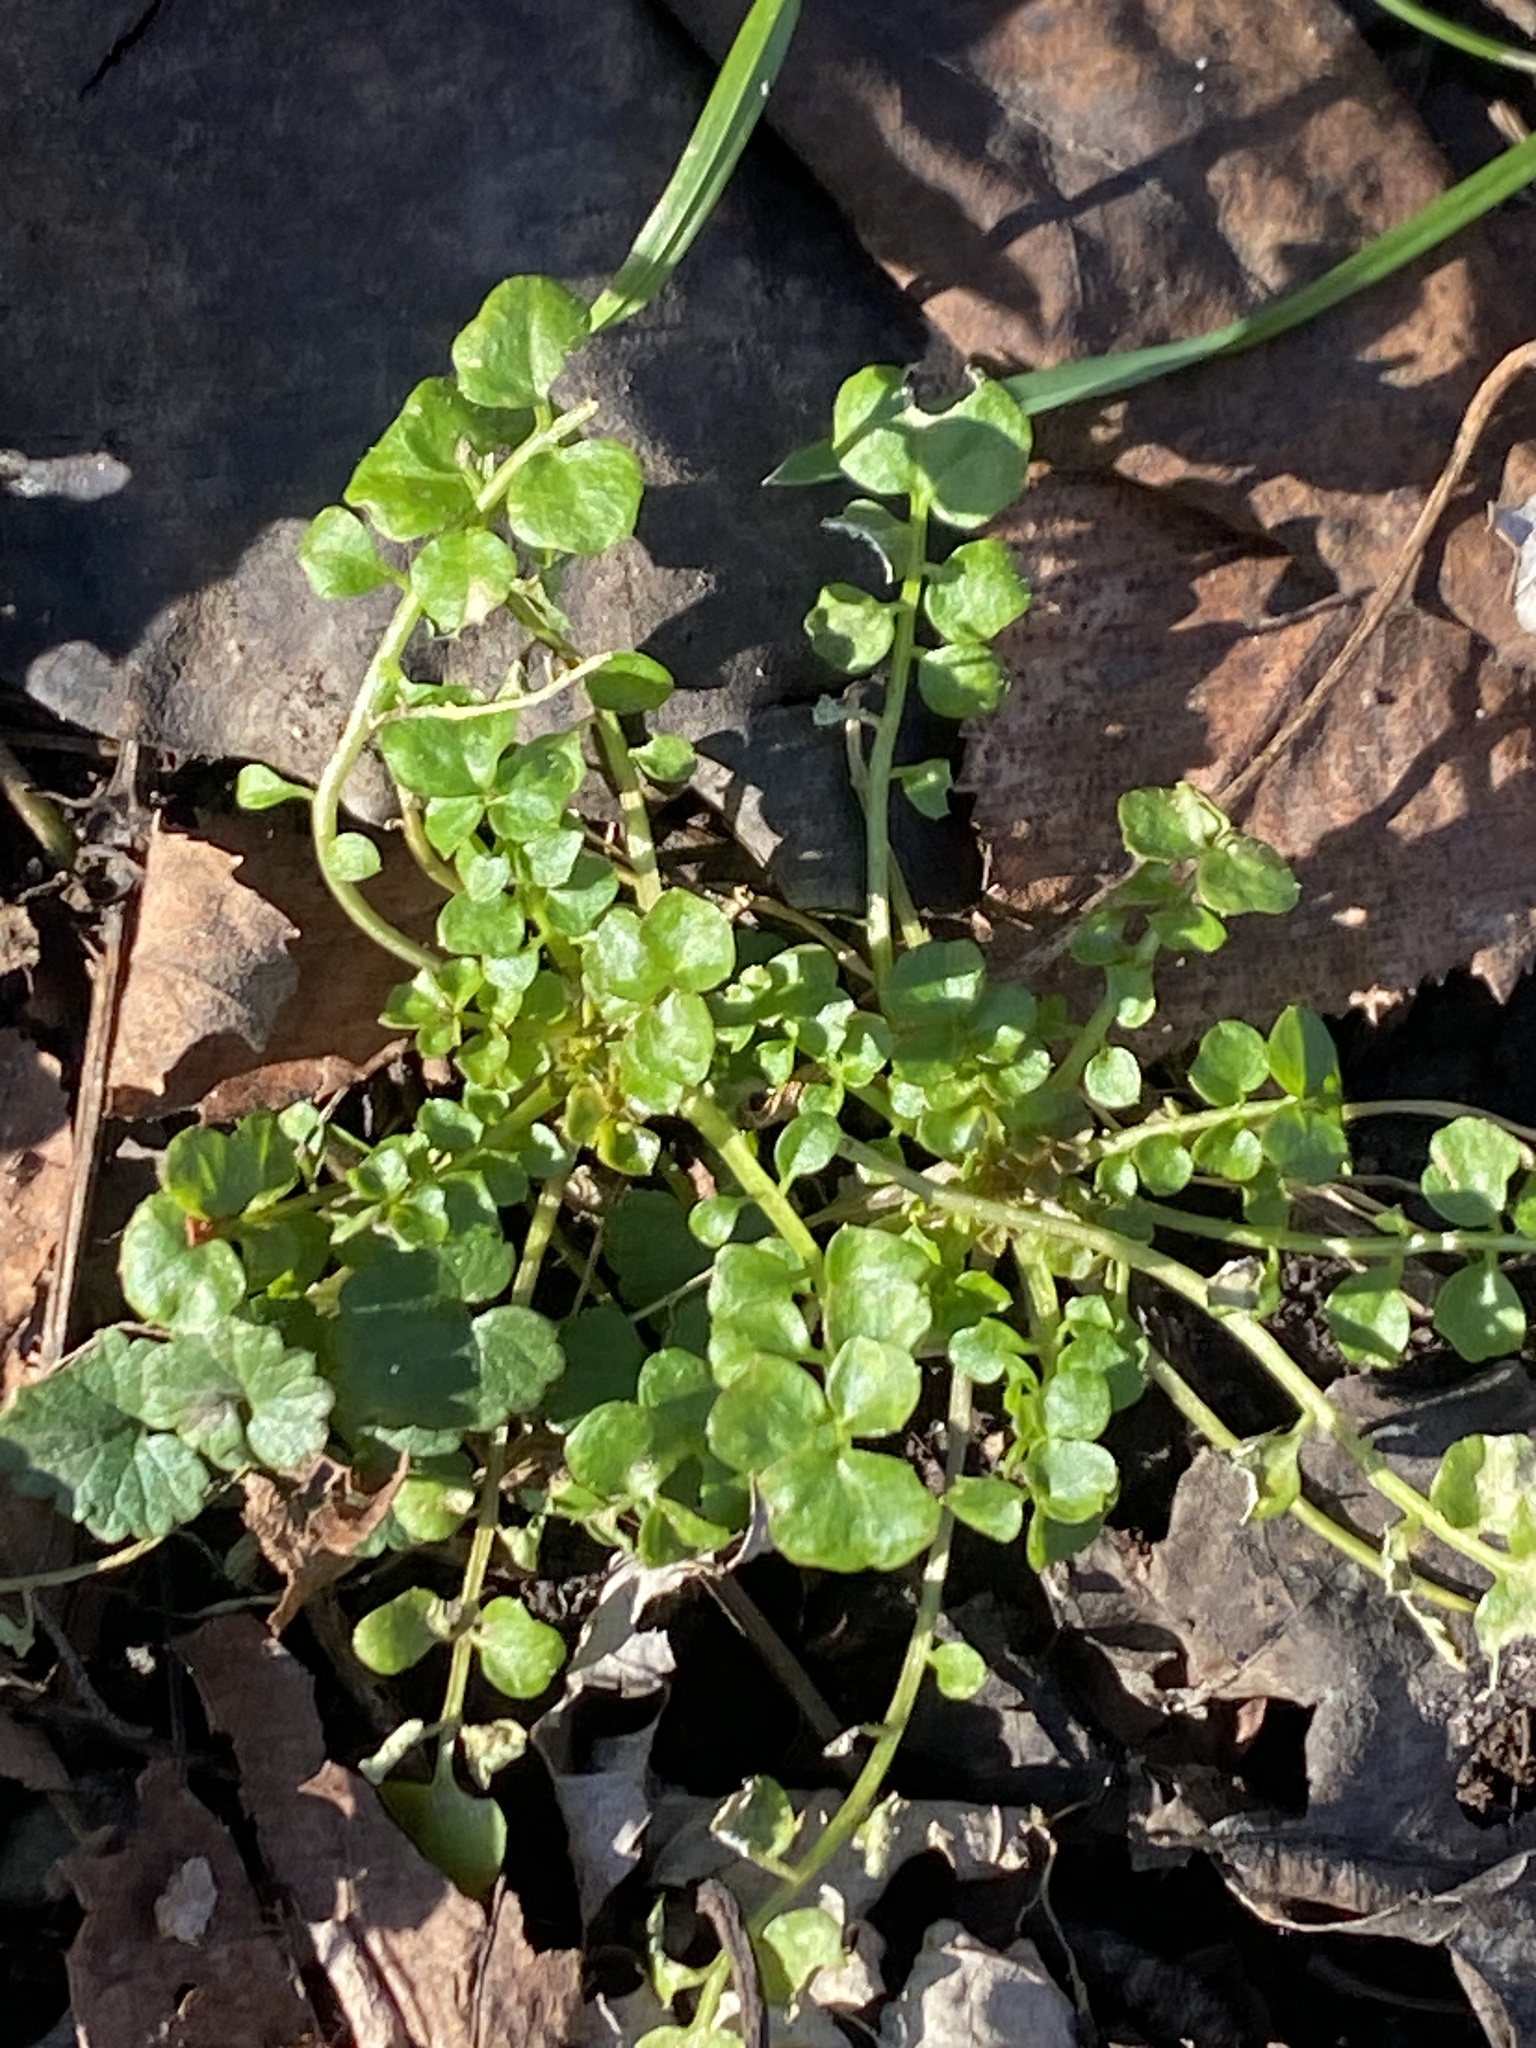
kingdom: Plantae
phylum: Tracheophyta
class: Magnoliopsida
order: Brassicales
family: Brassicaceae
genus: Cardamine
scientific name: Cardamine hirsuta
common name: Hairy bittercress
